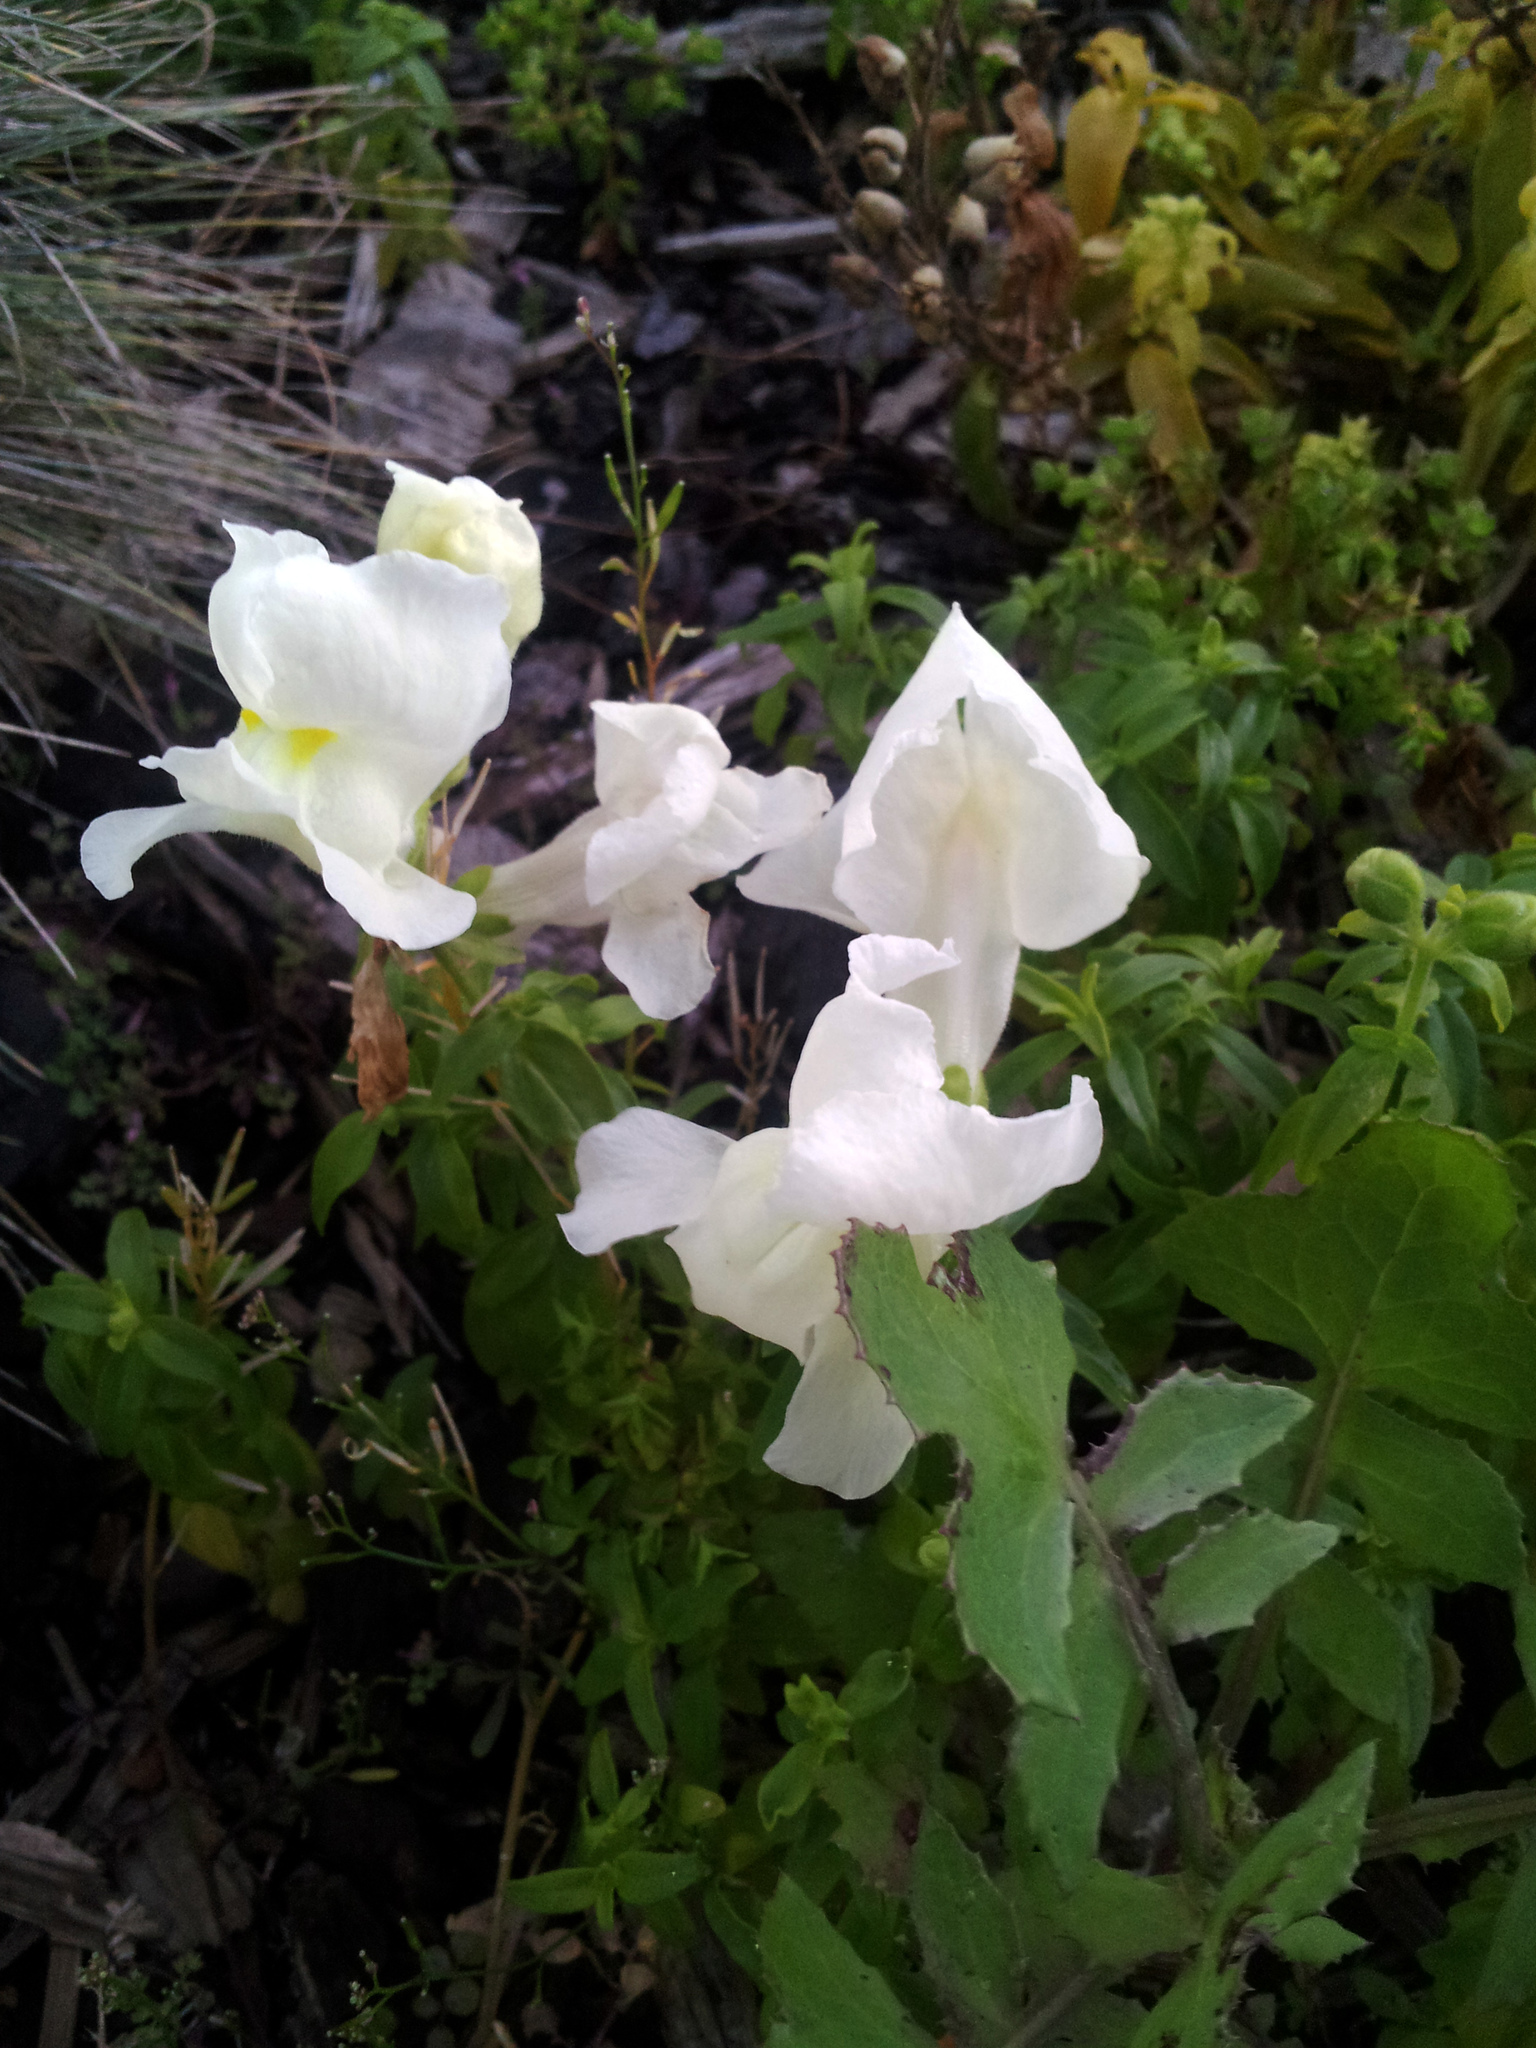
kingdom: Plantae
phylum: Tracheophyta
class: Magnoliopsida
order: Lamiales
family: Plantaginaceae
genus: Antirrhinum
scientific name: Antirrhinum majus
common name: Snapdragon
